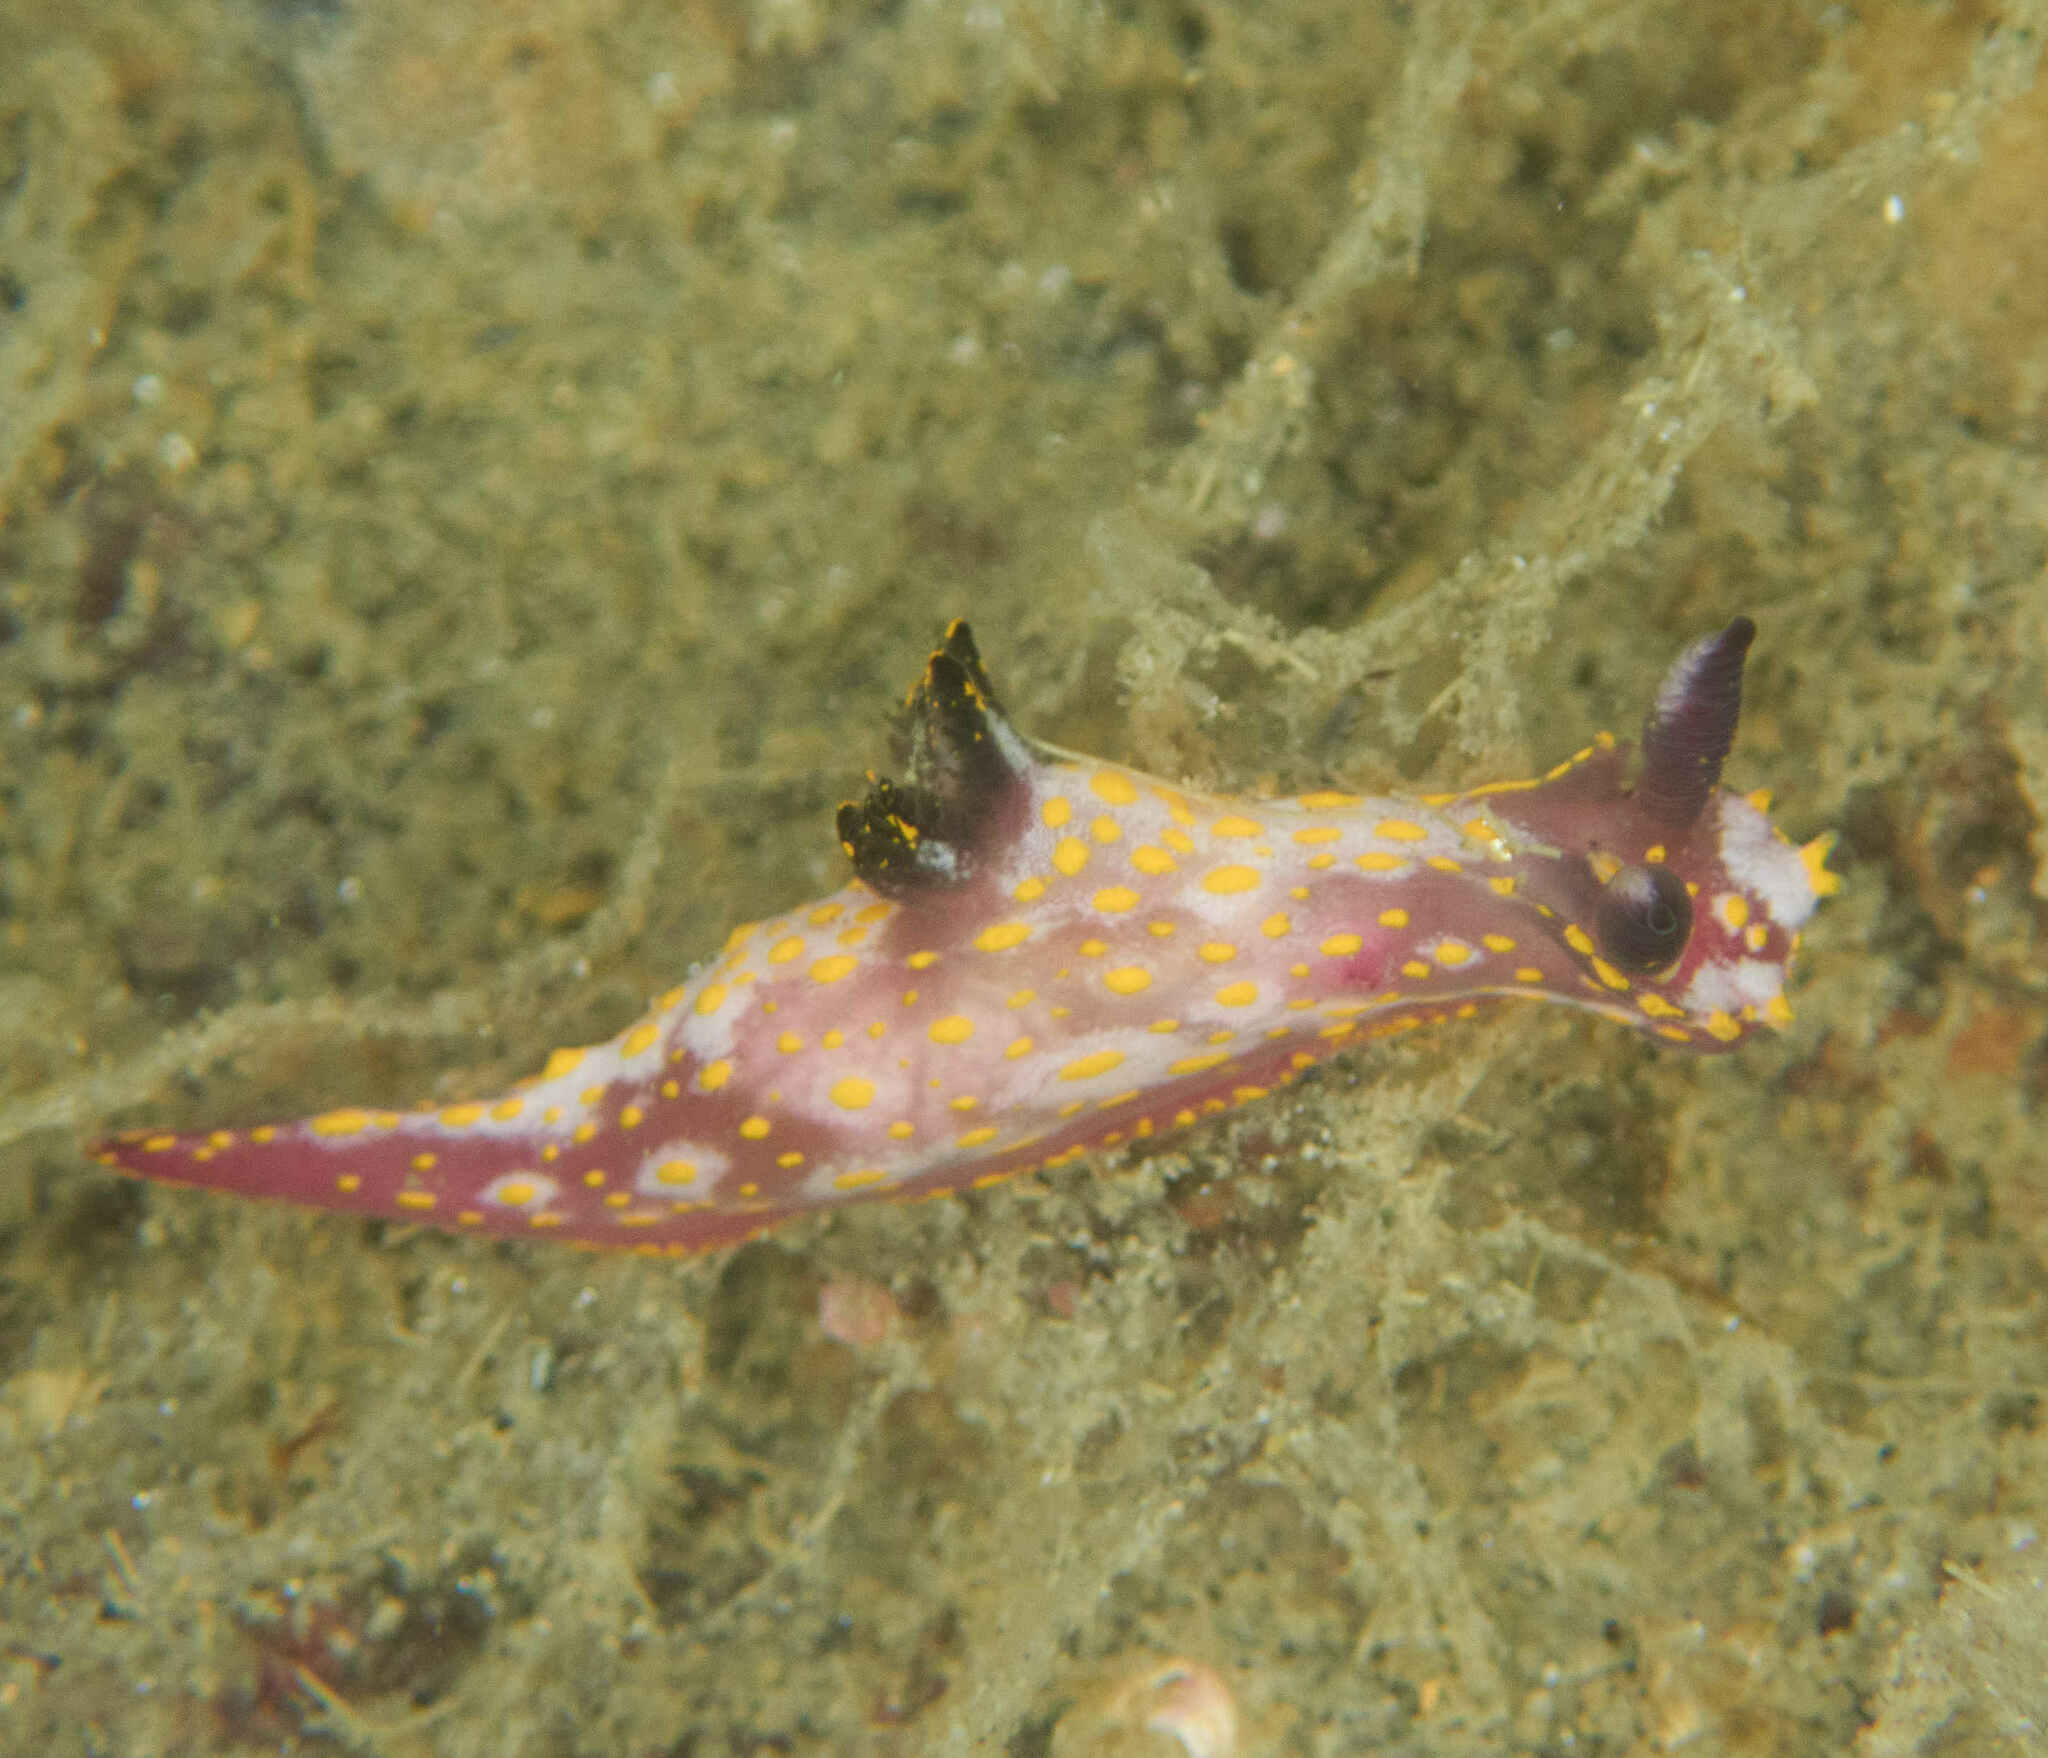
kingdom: Animalia
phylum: Mollusca
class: Gastropoda
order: Nudibranchia
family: Polyceridae
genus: Polycera
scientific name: Polycera maddoxi
